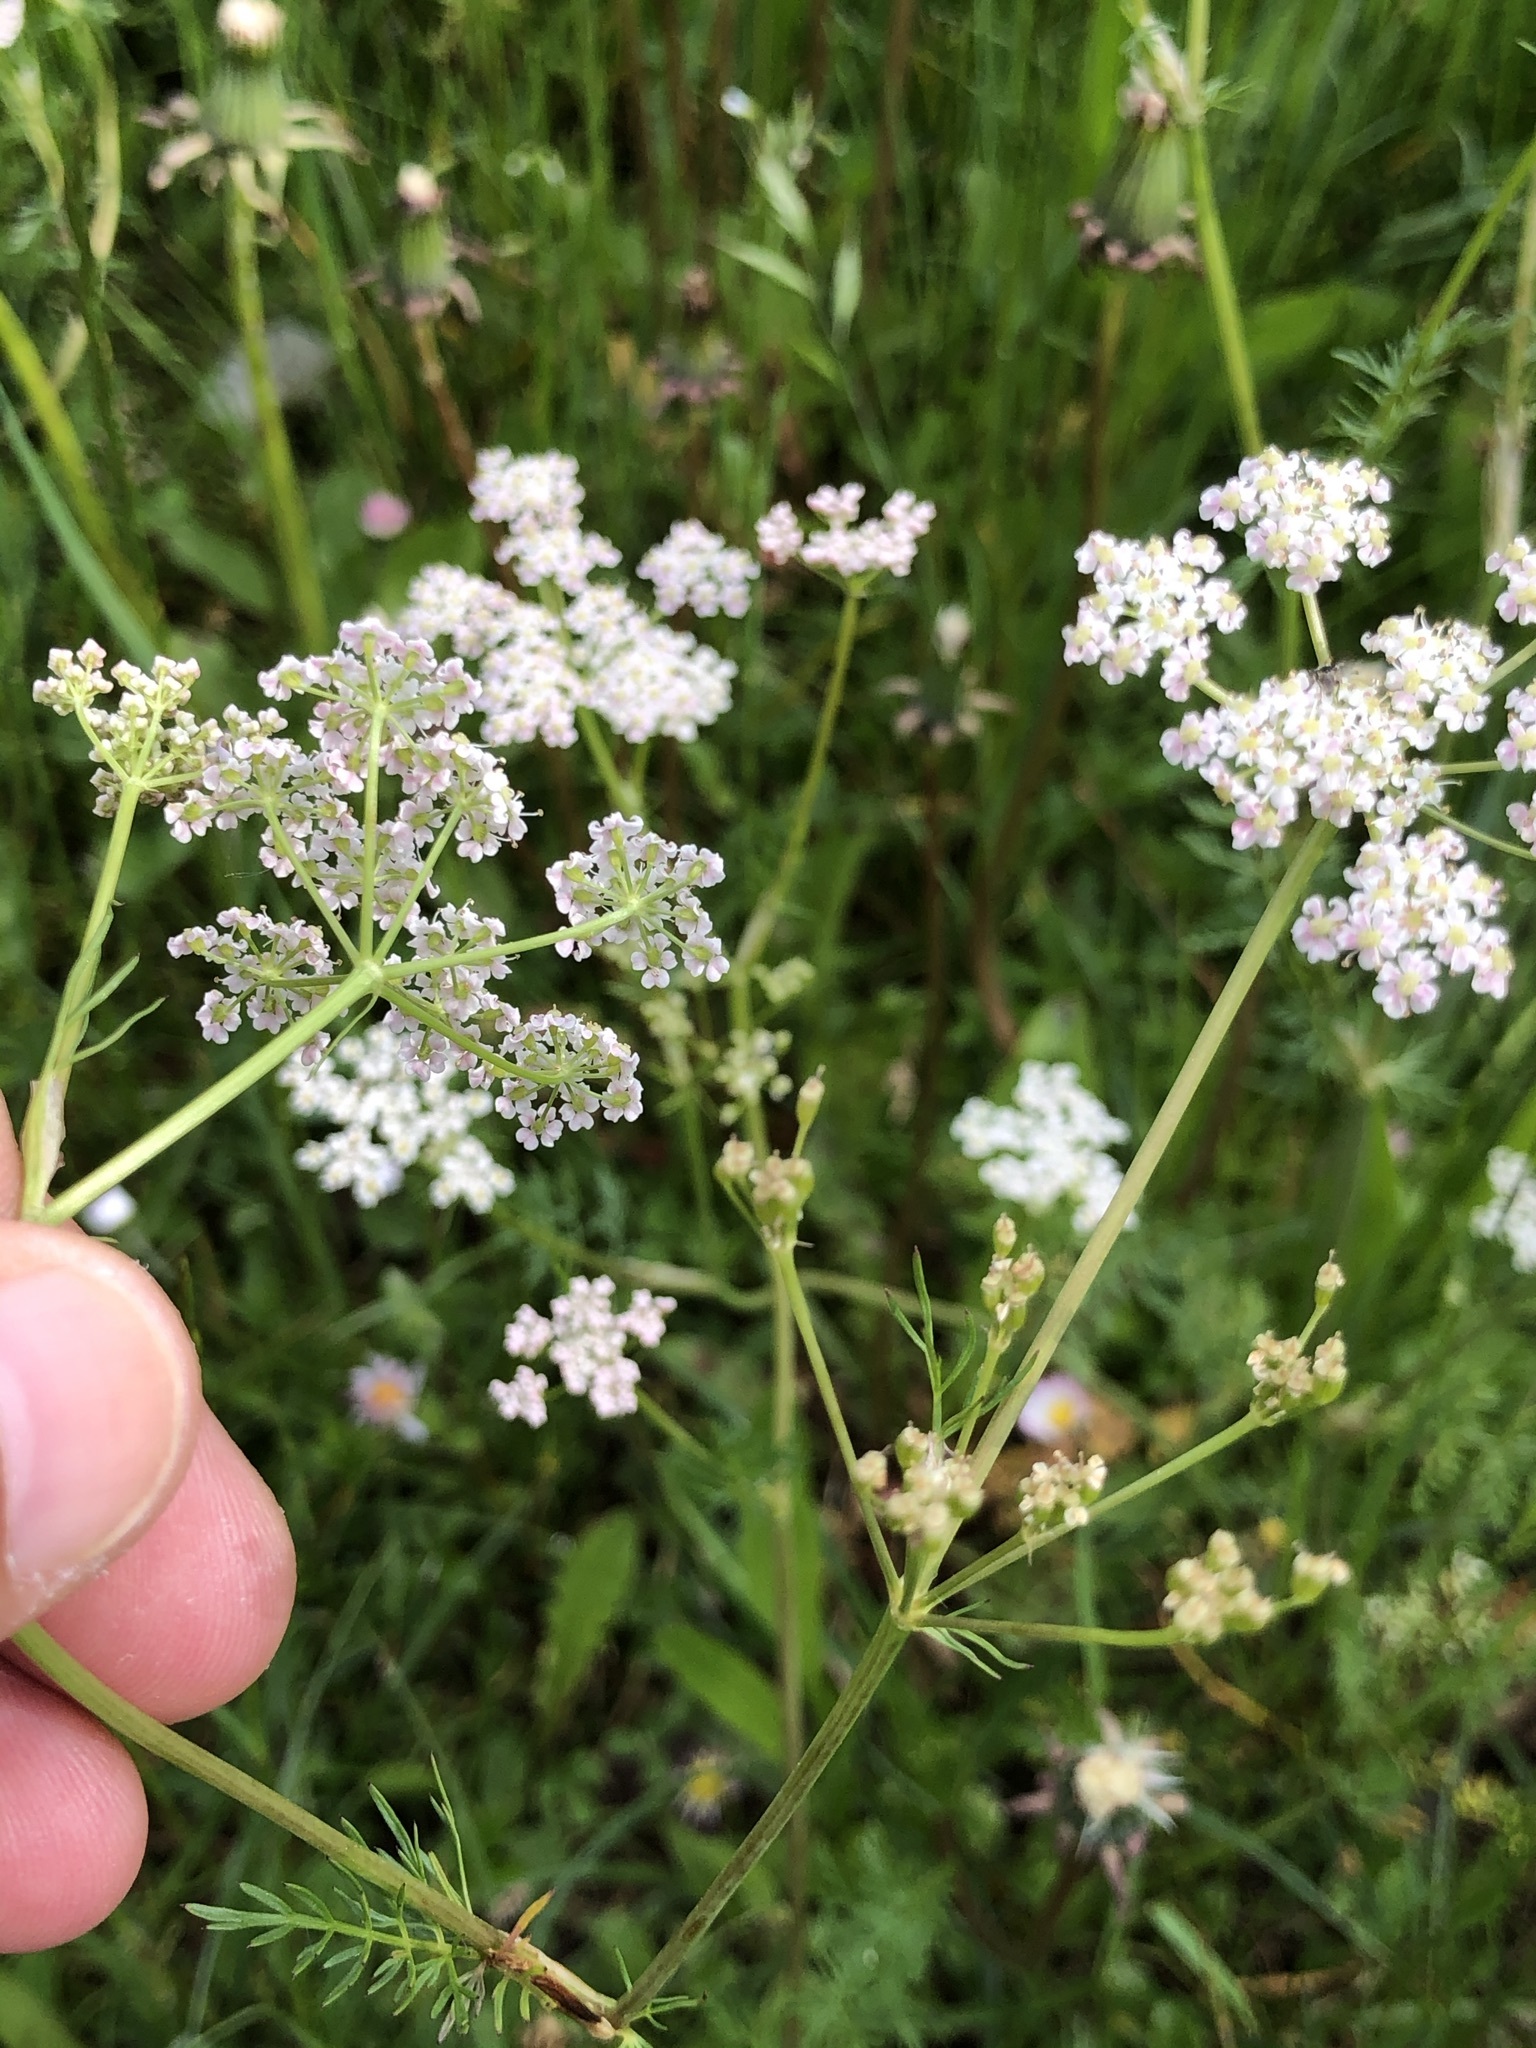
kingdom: Plantae
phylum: Tracheophyta
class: Magnoliopsida
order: Apiales
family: Apiaceae
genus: Carum
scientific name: Carum carvi
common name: Caraway
